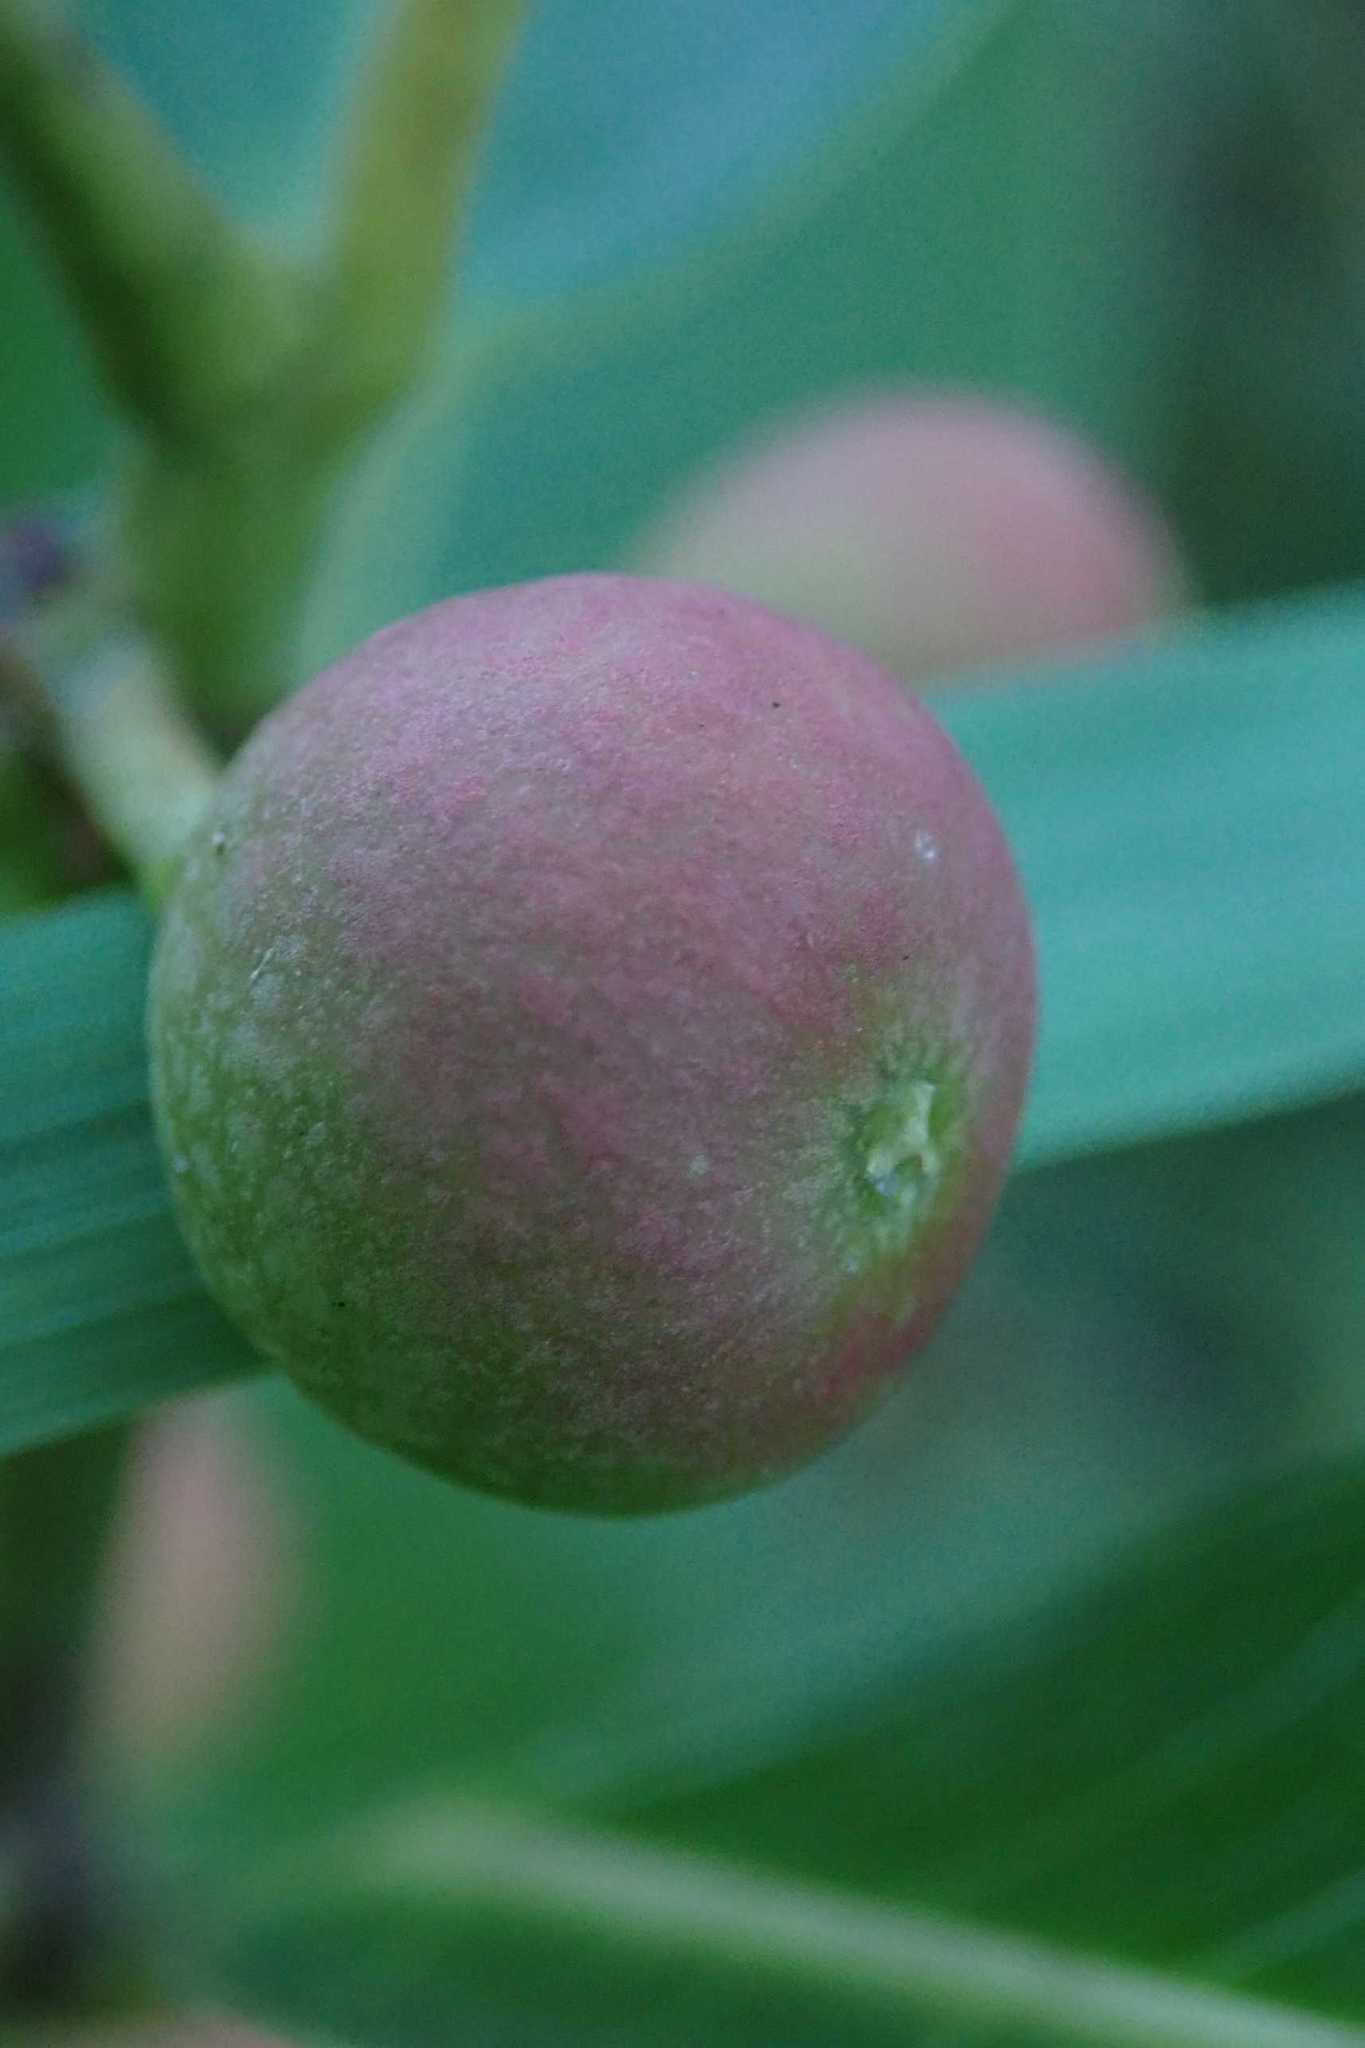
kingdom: Plantae
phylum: Tracheophyta
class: Magnoliopsida
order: Rosales
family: Moraceae
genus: Ficus
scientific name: Ficus verruculosa
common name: Water fig
